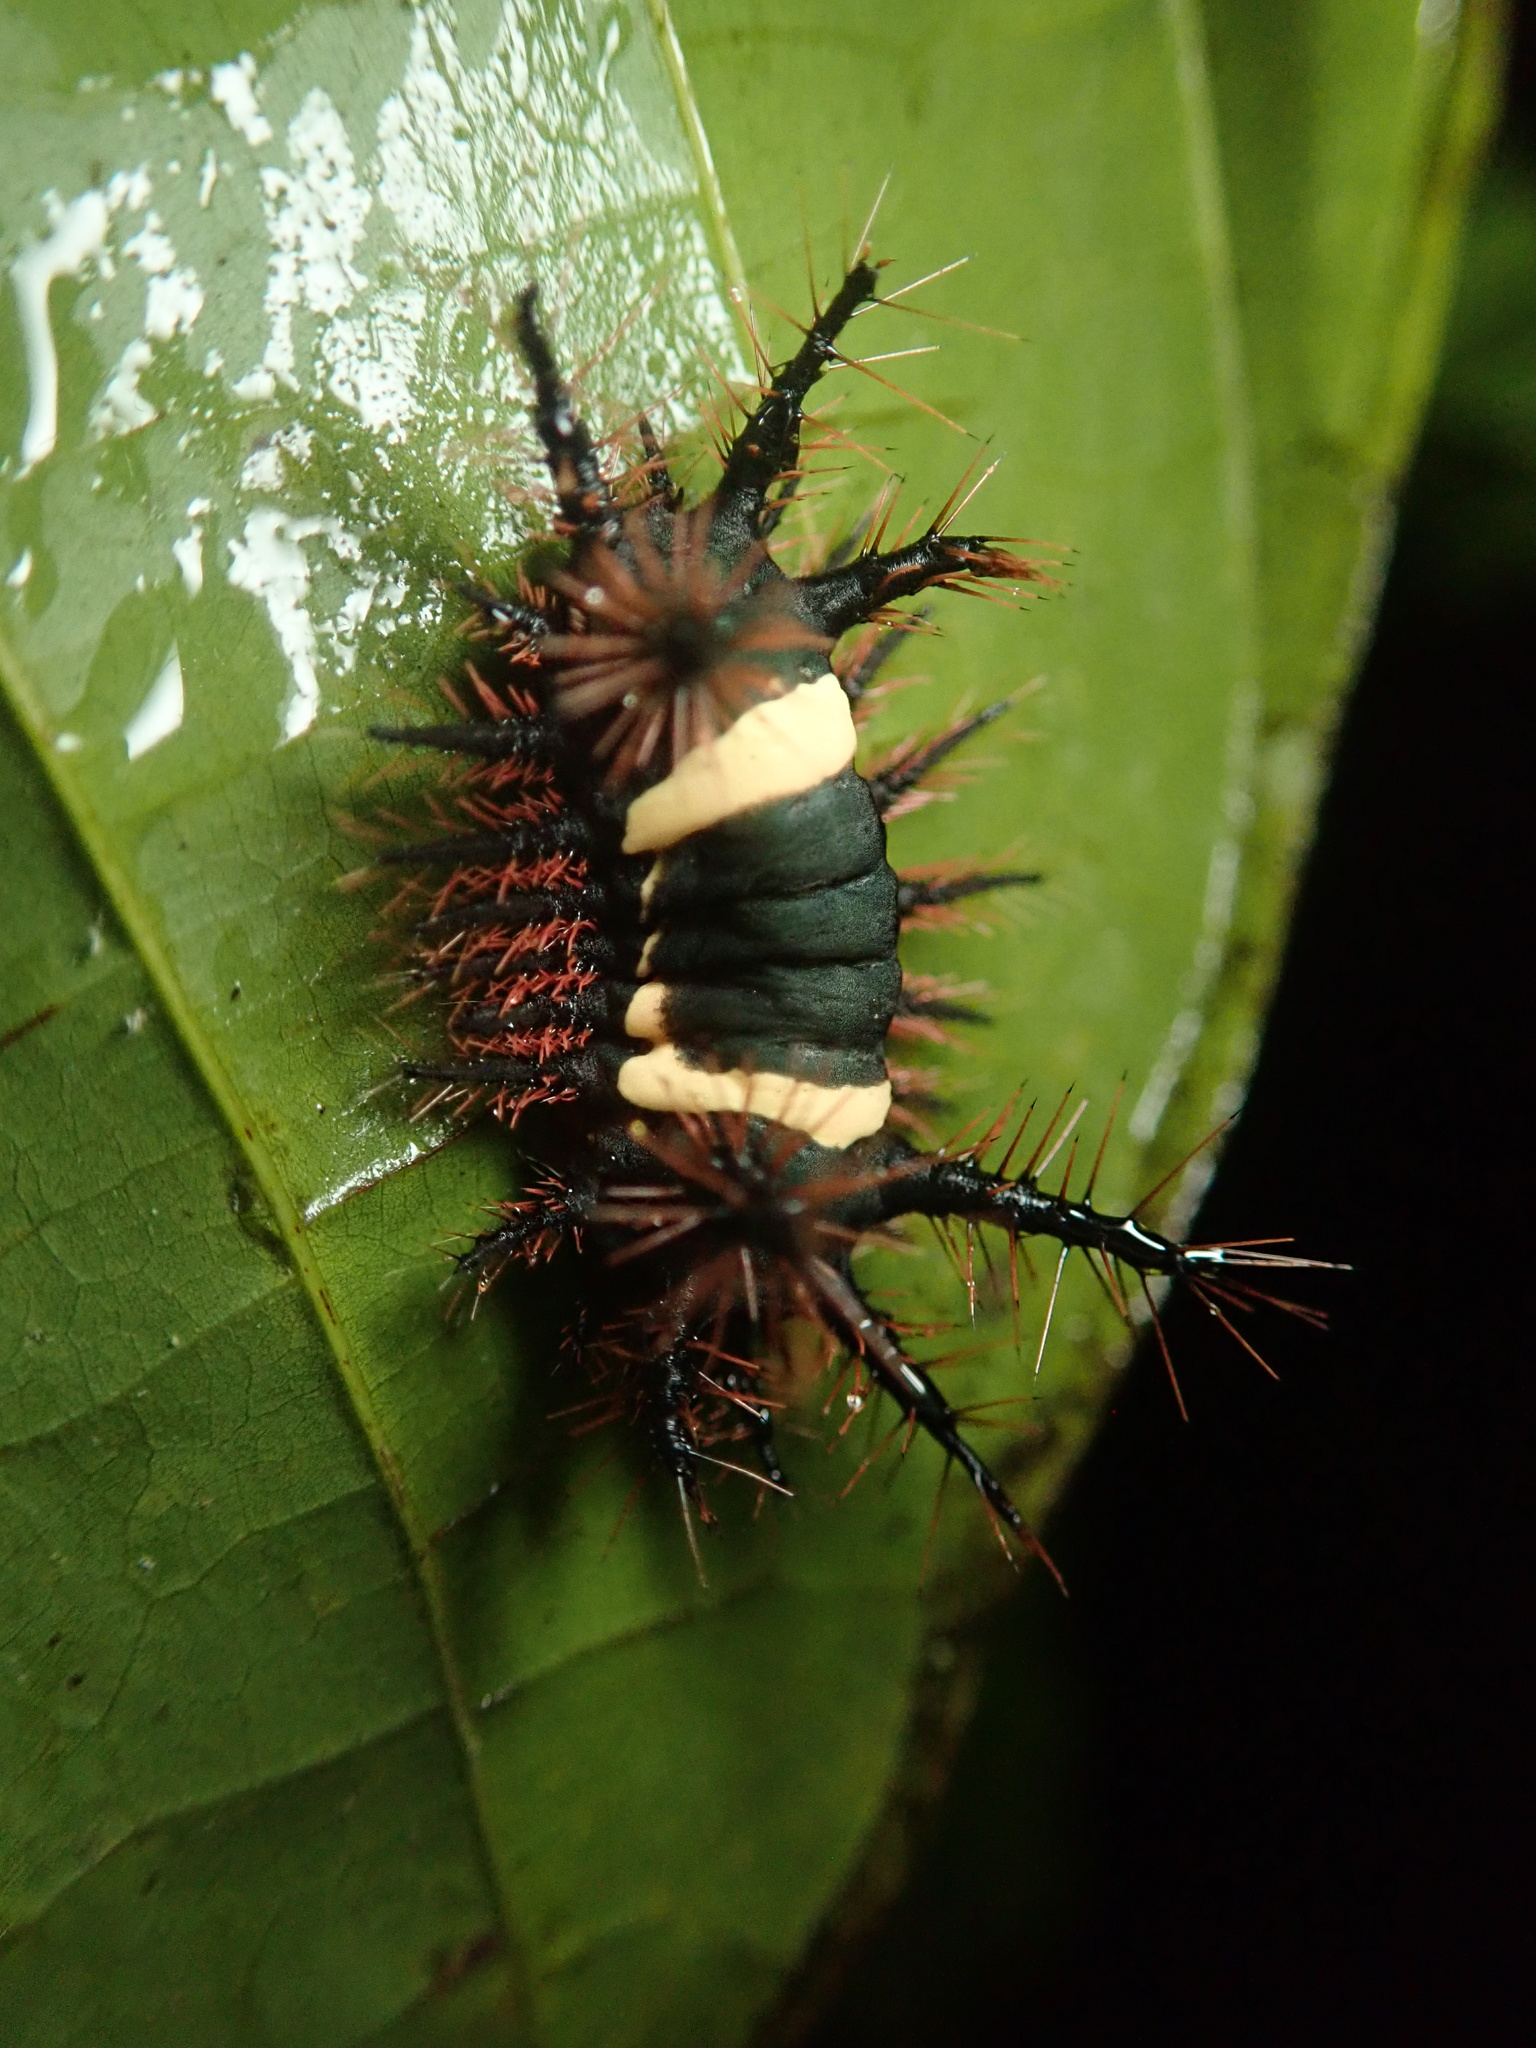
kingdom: Animalia
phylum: Arthropoda
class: Insecta
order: Lepidoptera
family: Limacodidae
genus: Sibine
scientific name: Sibine nesea
